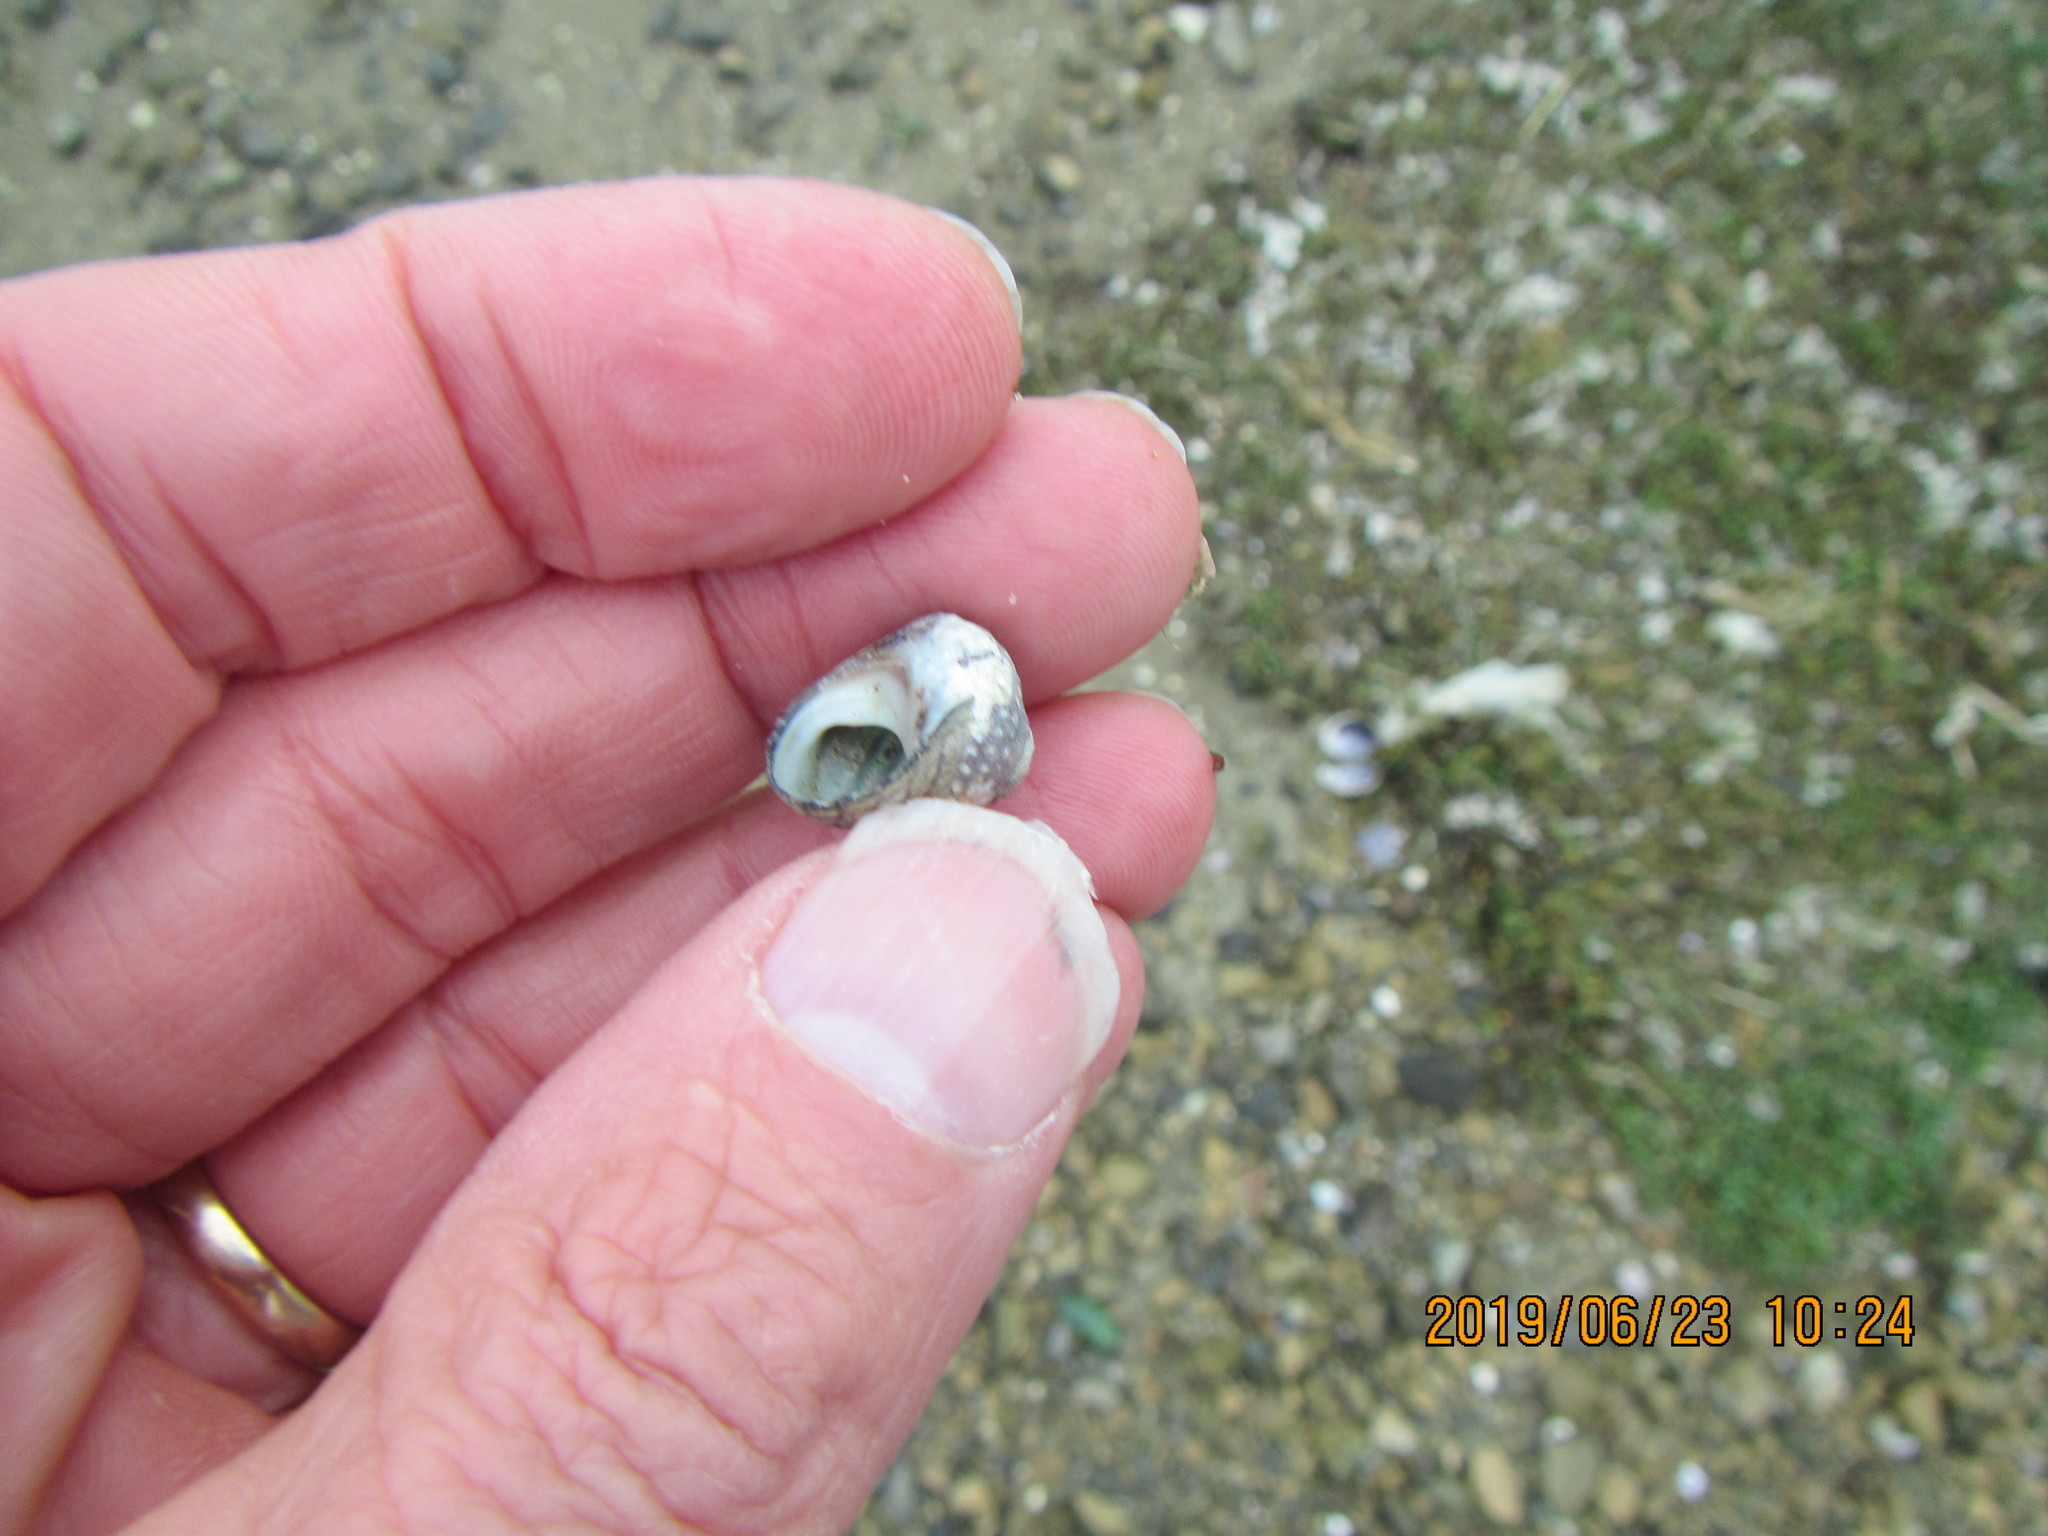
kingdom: Animalia
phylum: Mollusca
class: Gastropoda
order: Trochida
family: Trochidae
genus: Diloma
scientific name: Diloma aethiops
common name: Scorched monodont
